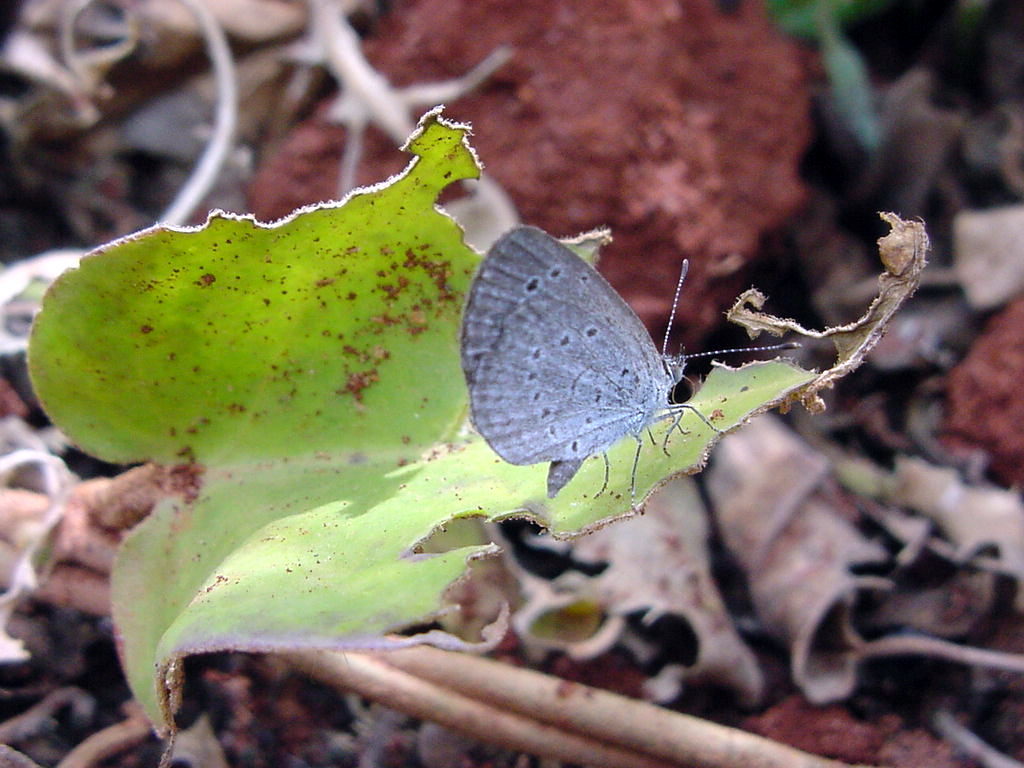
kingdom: Animalia
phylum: Arthropoda
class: Insecta
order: Lepidoptera
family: Lycaenidae
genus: Pseudozizeeria
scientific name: Pseudozizeeria maha
